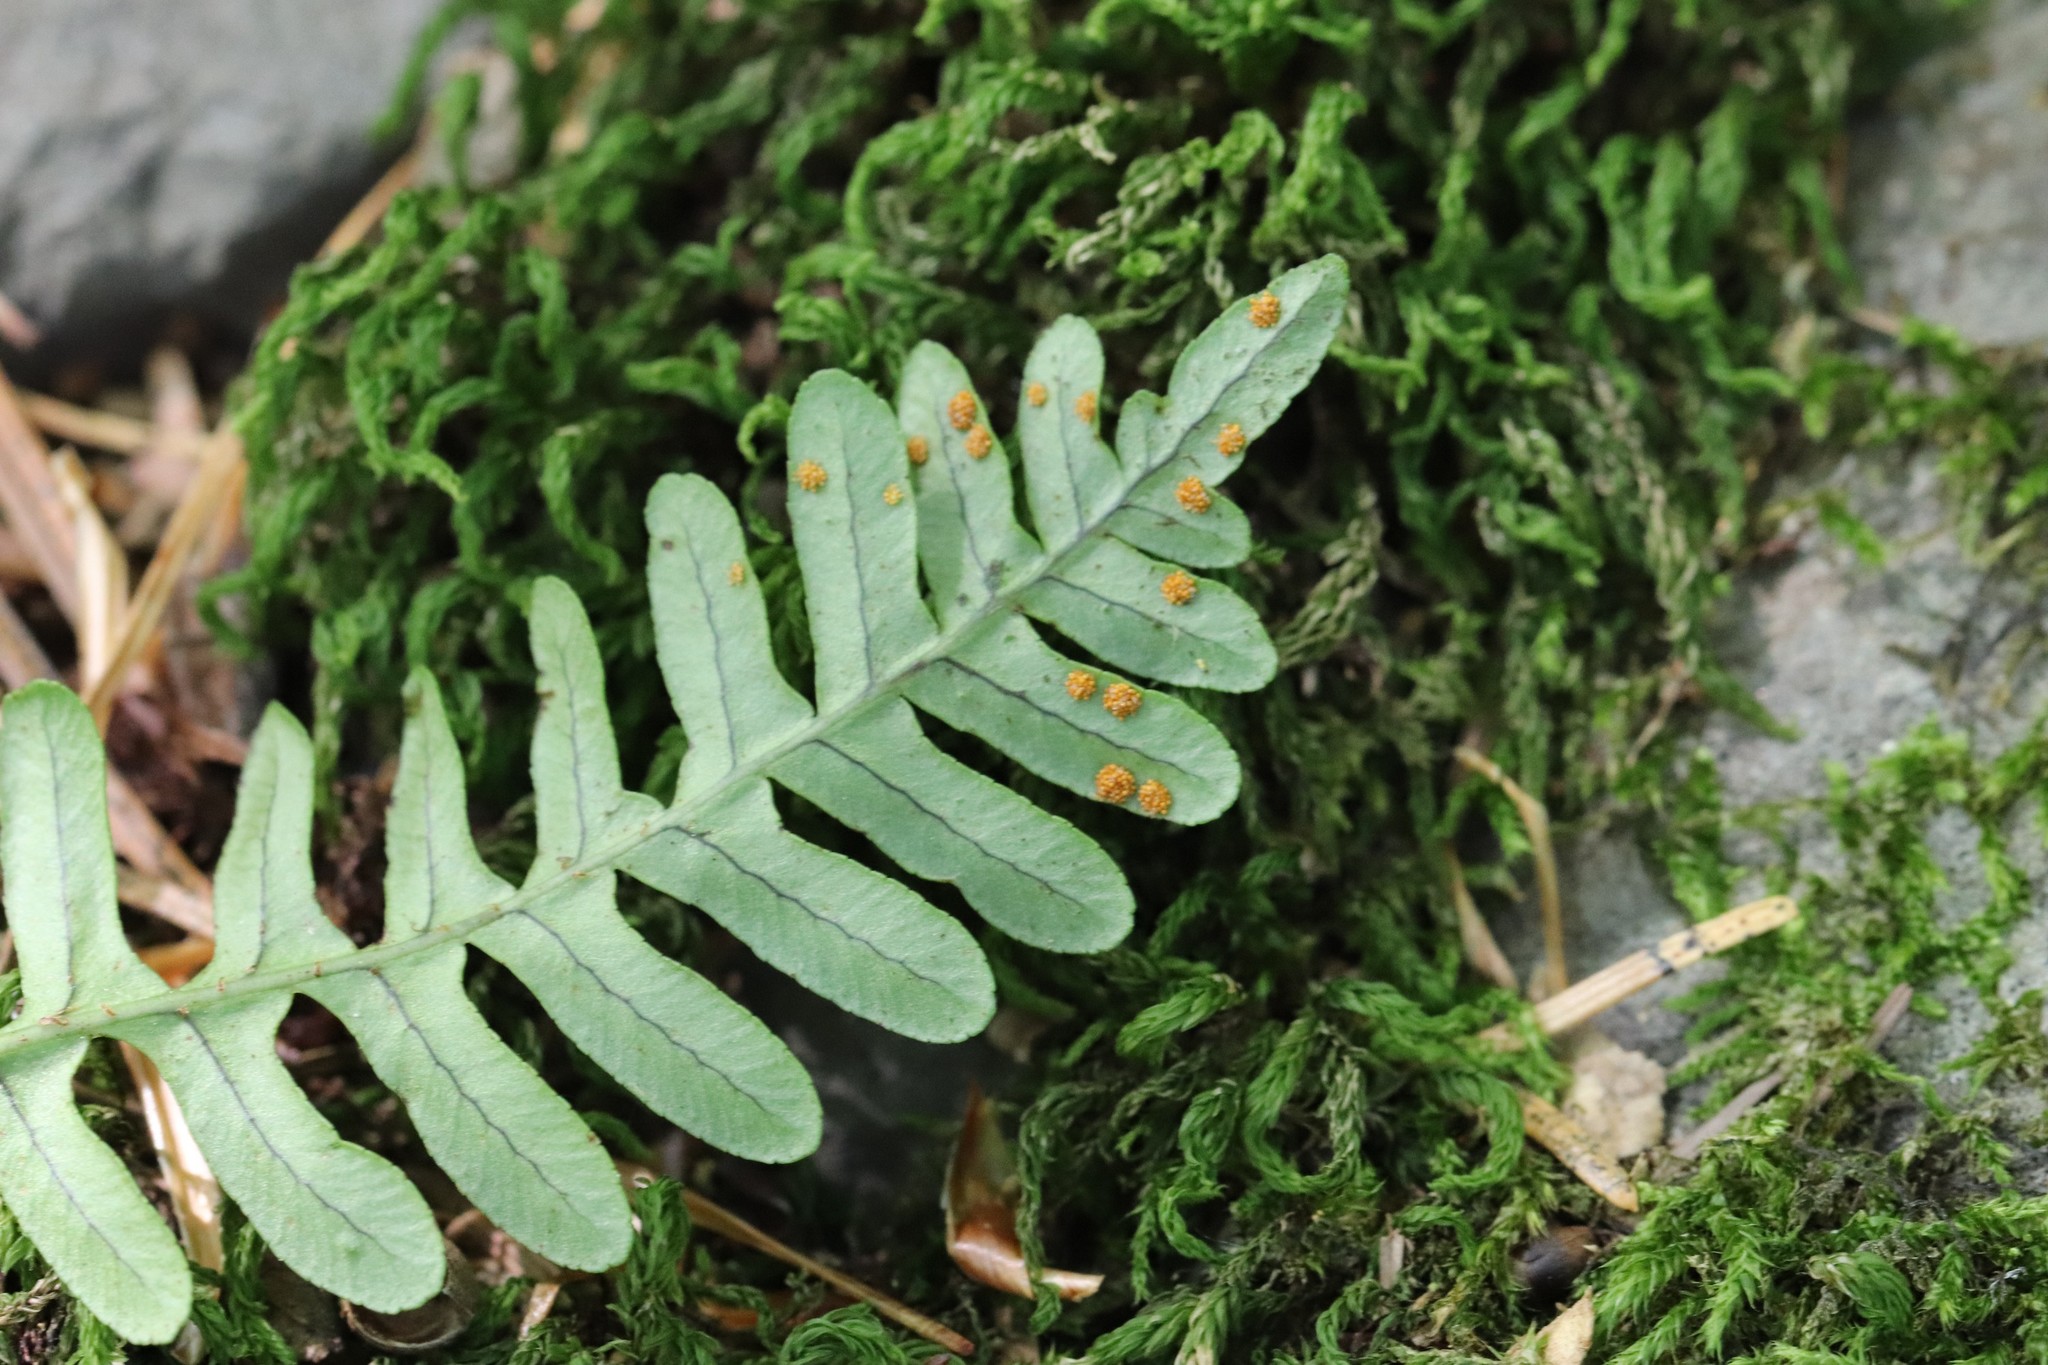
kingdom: Plantae
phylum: Tracheophyta
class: Polypodiopsida
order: Polypodiales
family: Polypodiaceae
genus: Polypodium
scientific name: Polypodium sibiricum
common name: Siberian polypody
